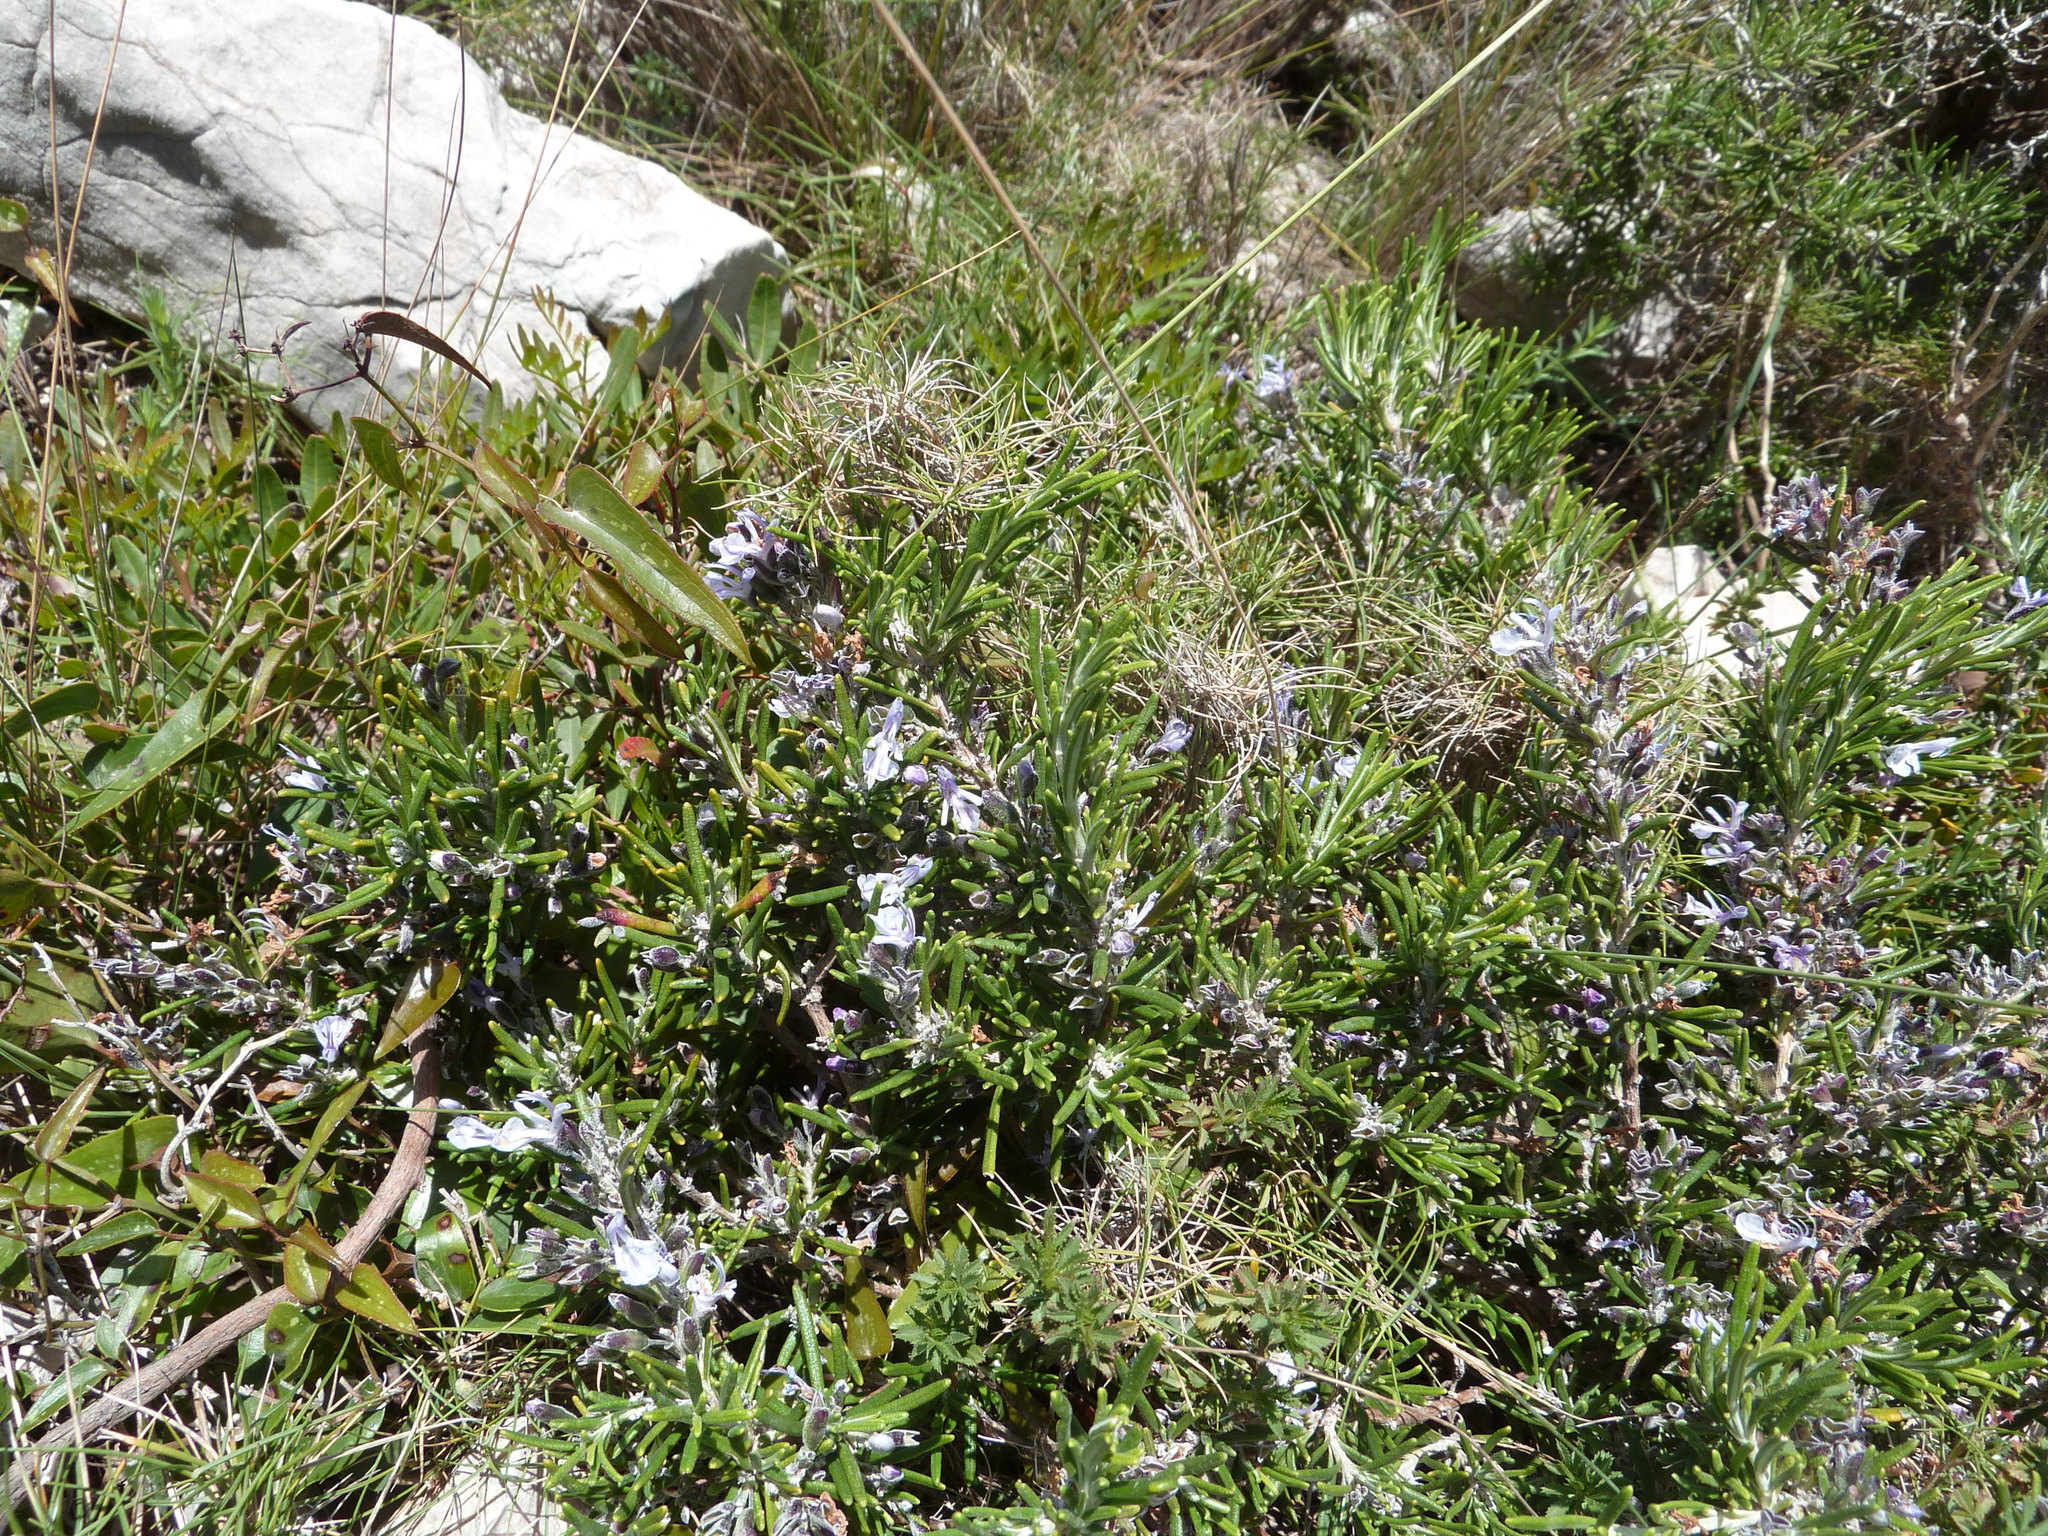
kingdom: Plantae
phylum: Tracheophyta
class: Magnoliopsida
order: Lamiales
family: Lamiaceae
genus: Salvia
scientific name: Salvia rosmarinus
